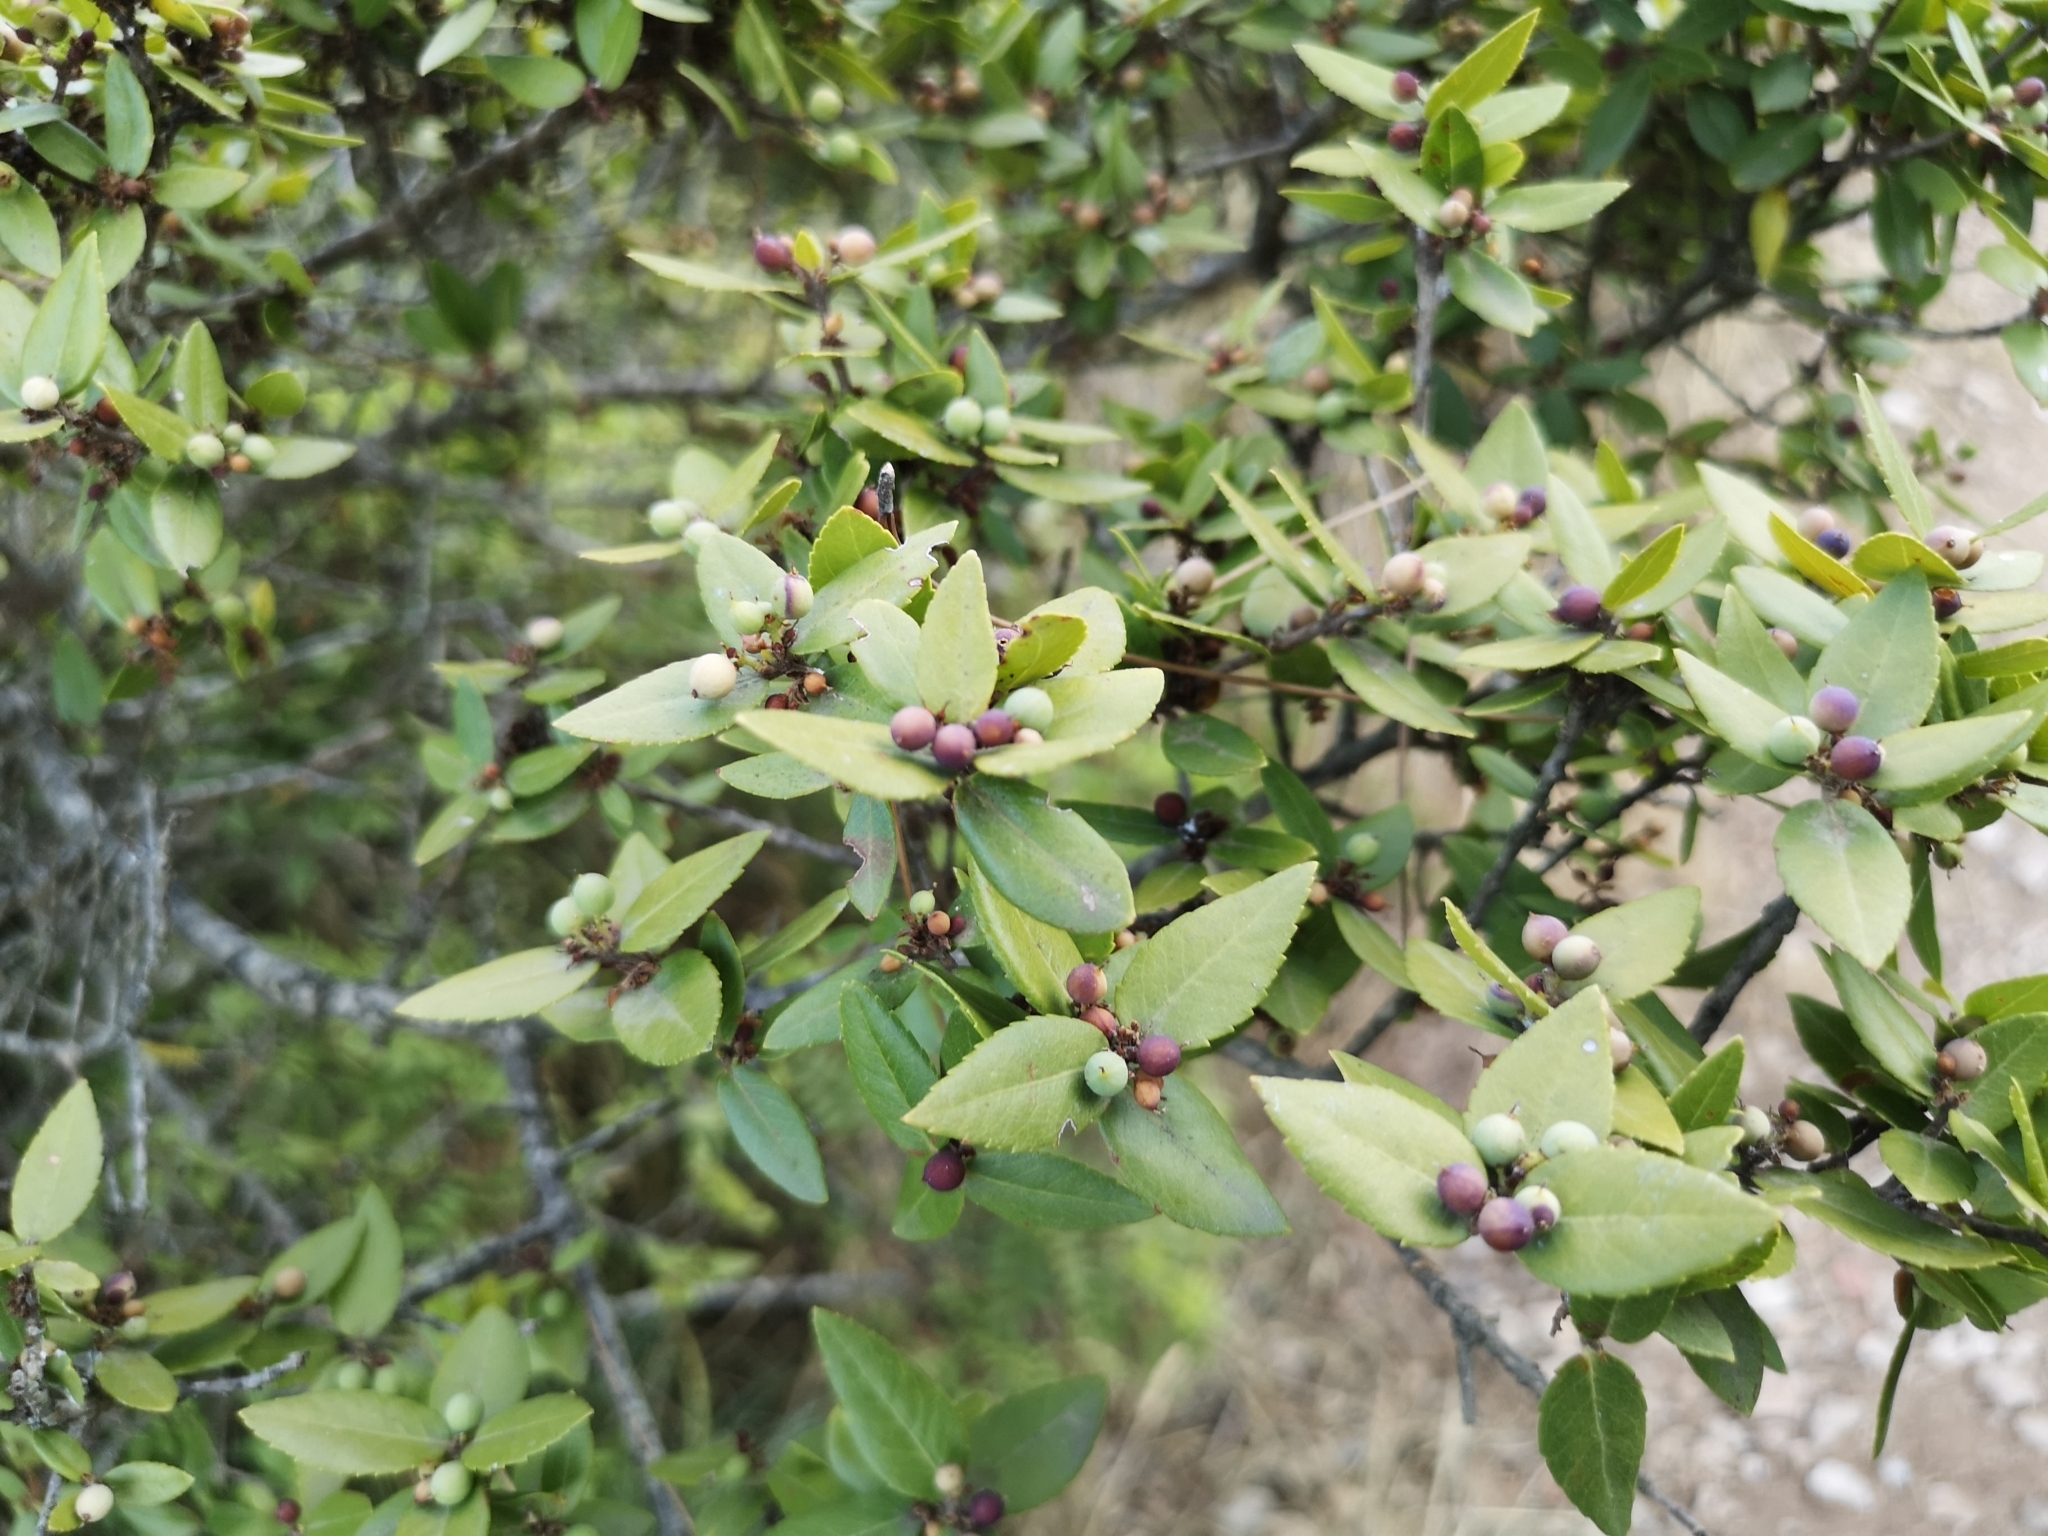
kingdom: Plantae
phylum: Tracheophyta
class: Magnoliopsida
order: Lamiales
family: Oleaceae
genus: Phillyrea
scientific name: Phillyrea latifolia
